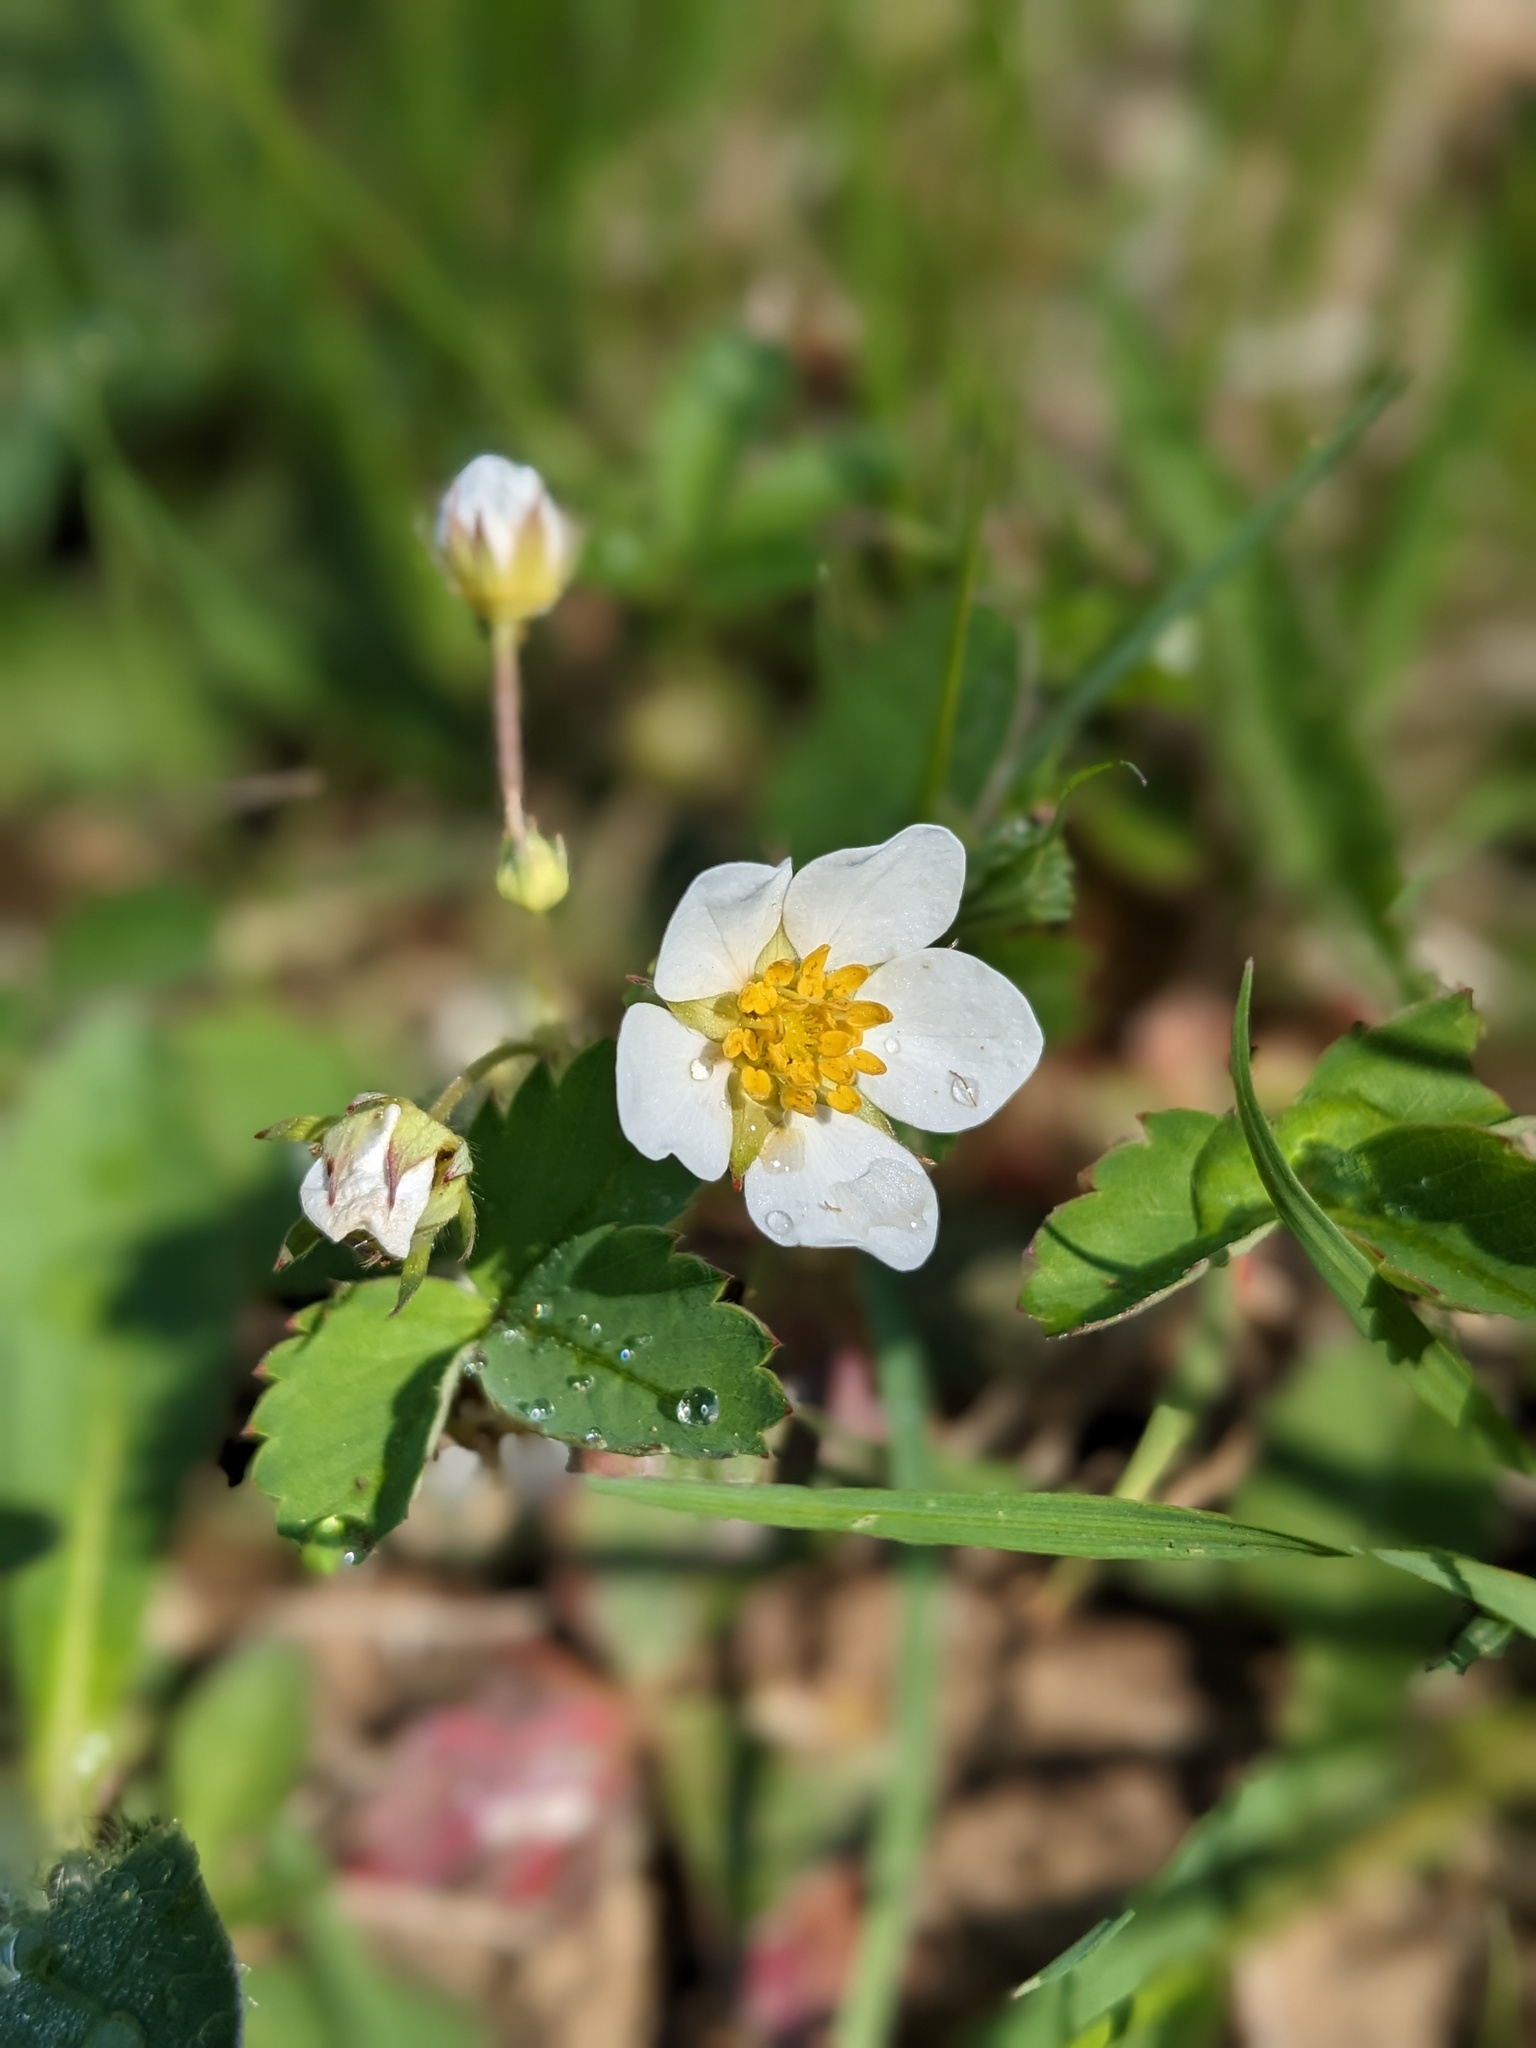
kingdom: Plantae
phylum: Tracheophyta
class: Magnoliopsida
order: Rosales
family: Rosaceae
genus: Fragaria
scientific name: Fragaria virginiana
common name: Thickleaved wild strawberry
